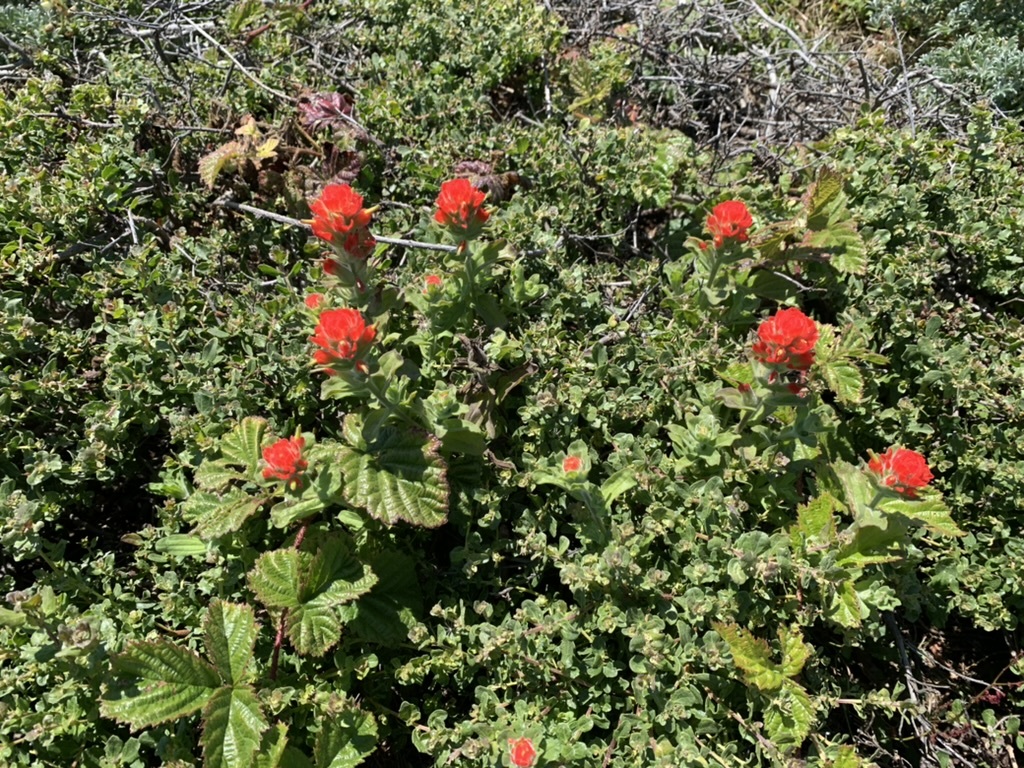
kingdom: Plantae
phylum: Tracheophyta
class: Magnoliopsida
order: Lamiales
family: Orobanchaceae
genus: Castilleja
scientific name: Castilleja wightii
